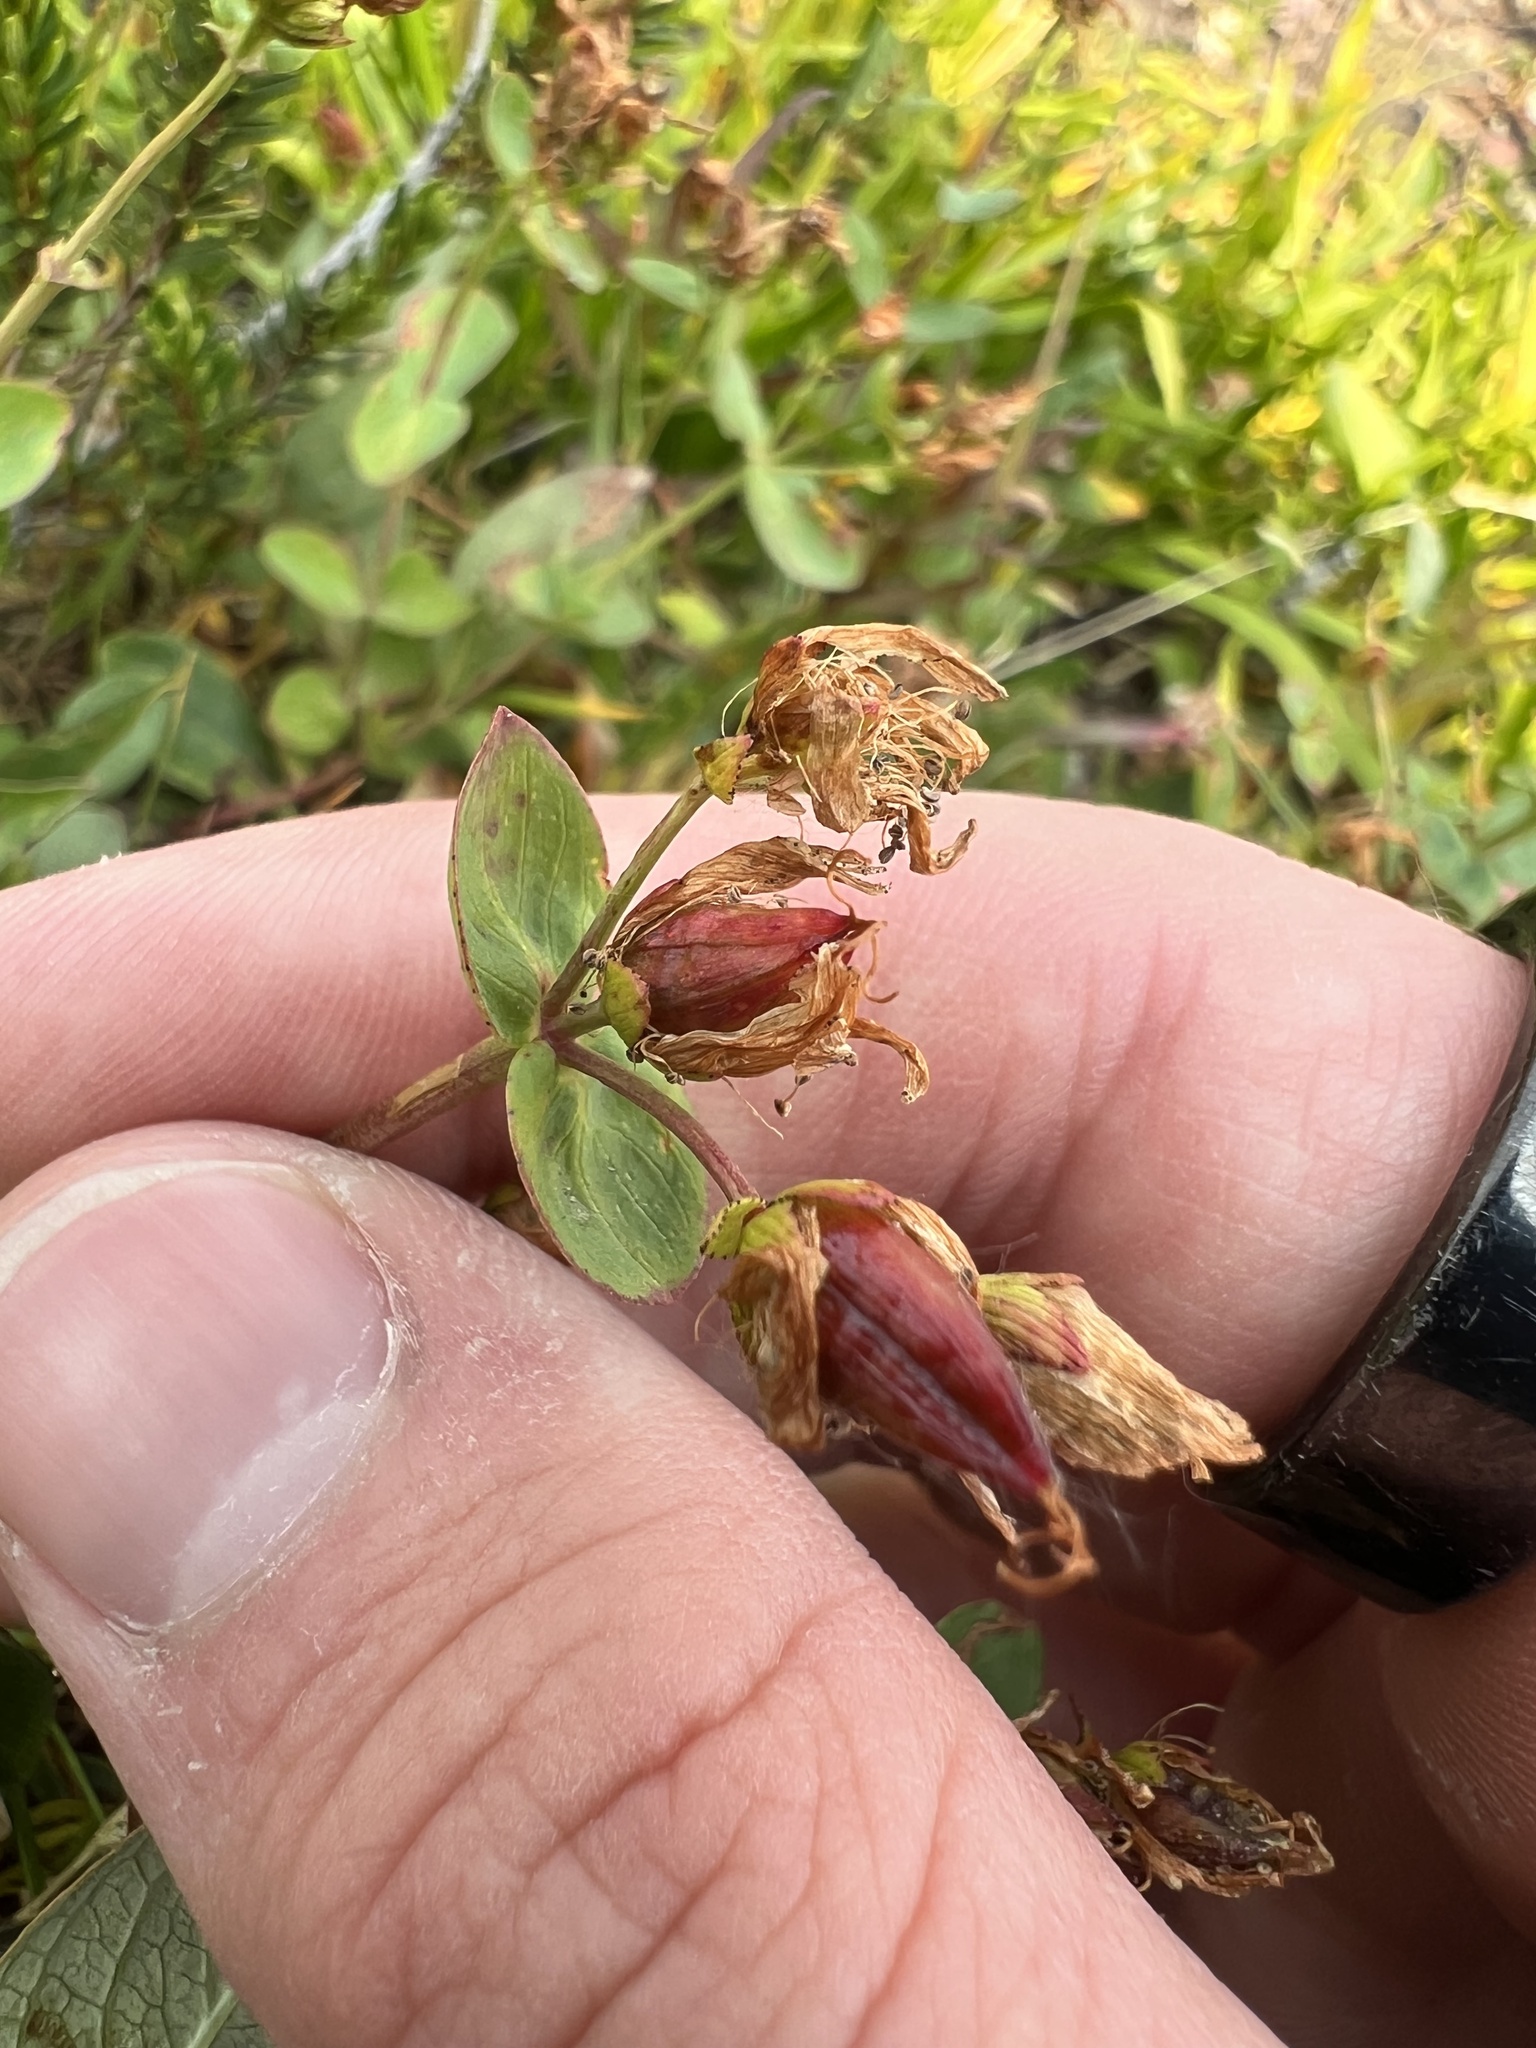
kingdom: Plantae
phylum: Tracheophyta
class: Magnoliopsida
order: Lamiales
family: Plantaginaceae
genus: Penstemon
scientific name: Penstemon ellipticus
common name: Alpine beardtongue
